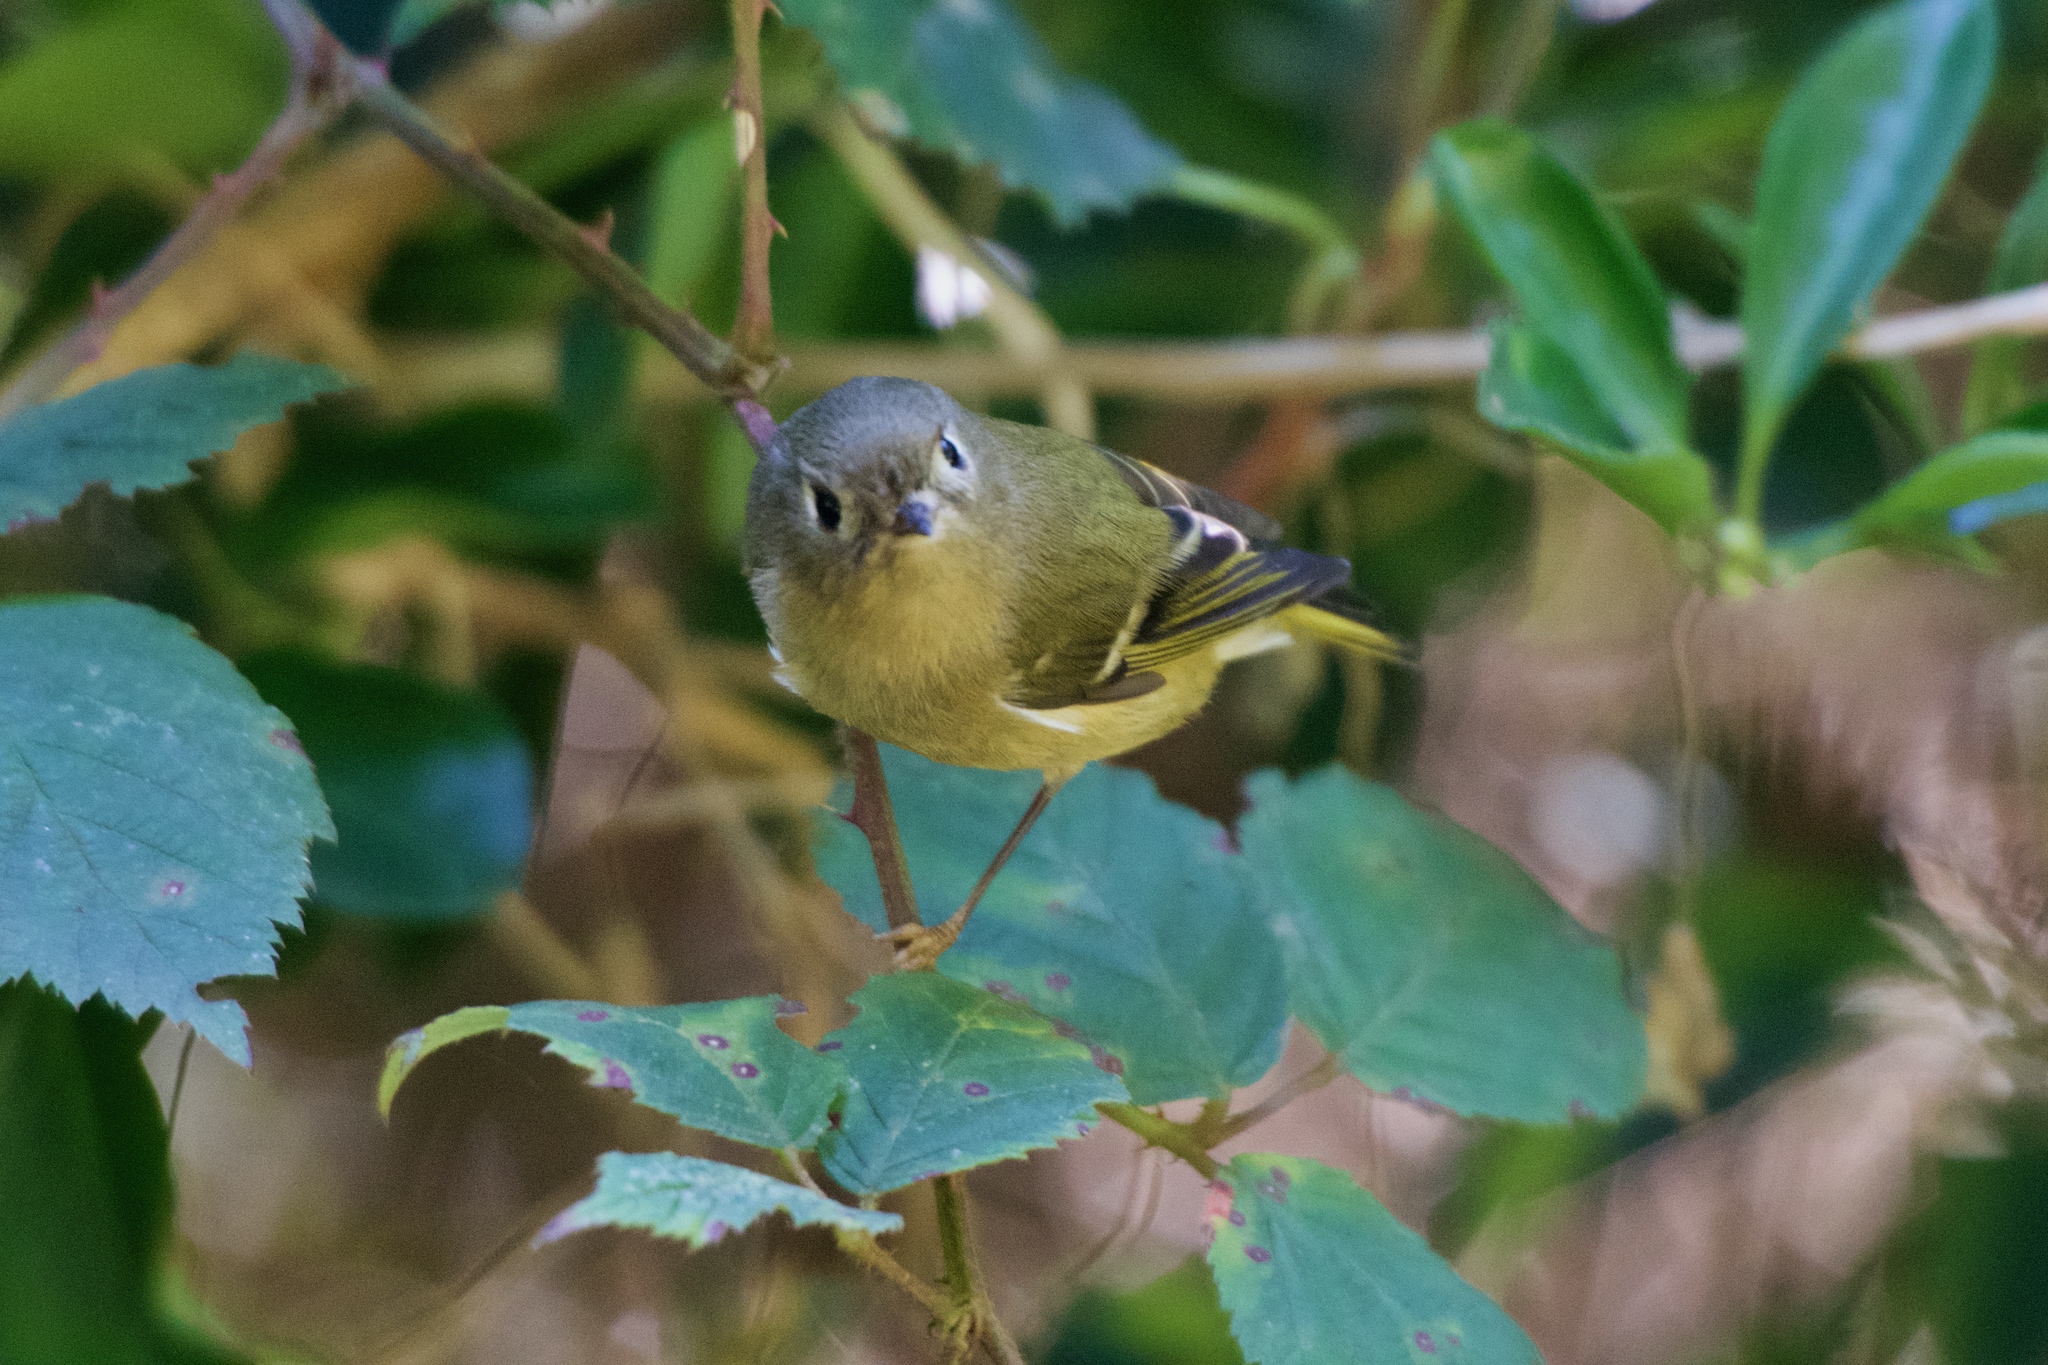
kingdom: Animalia
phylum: Chordata
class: Aves
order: Passeriformes
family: Regulidae
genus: Regulus
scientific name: Regulus calendula
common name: Ruby-crowned kinglet
